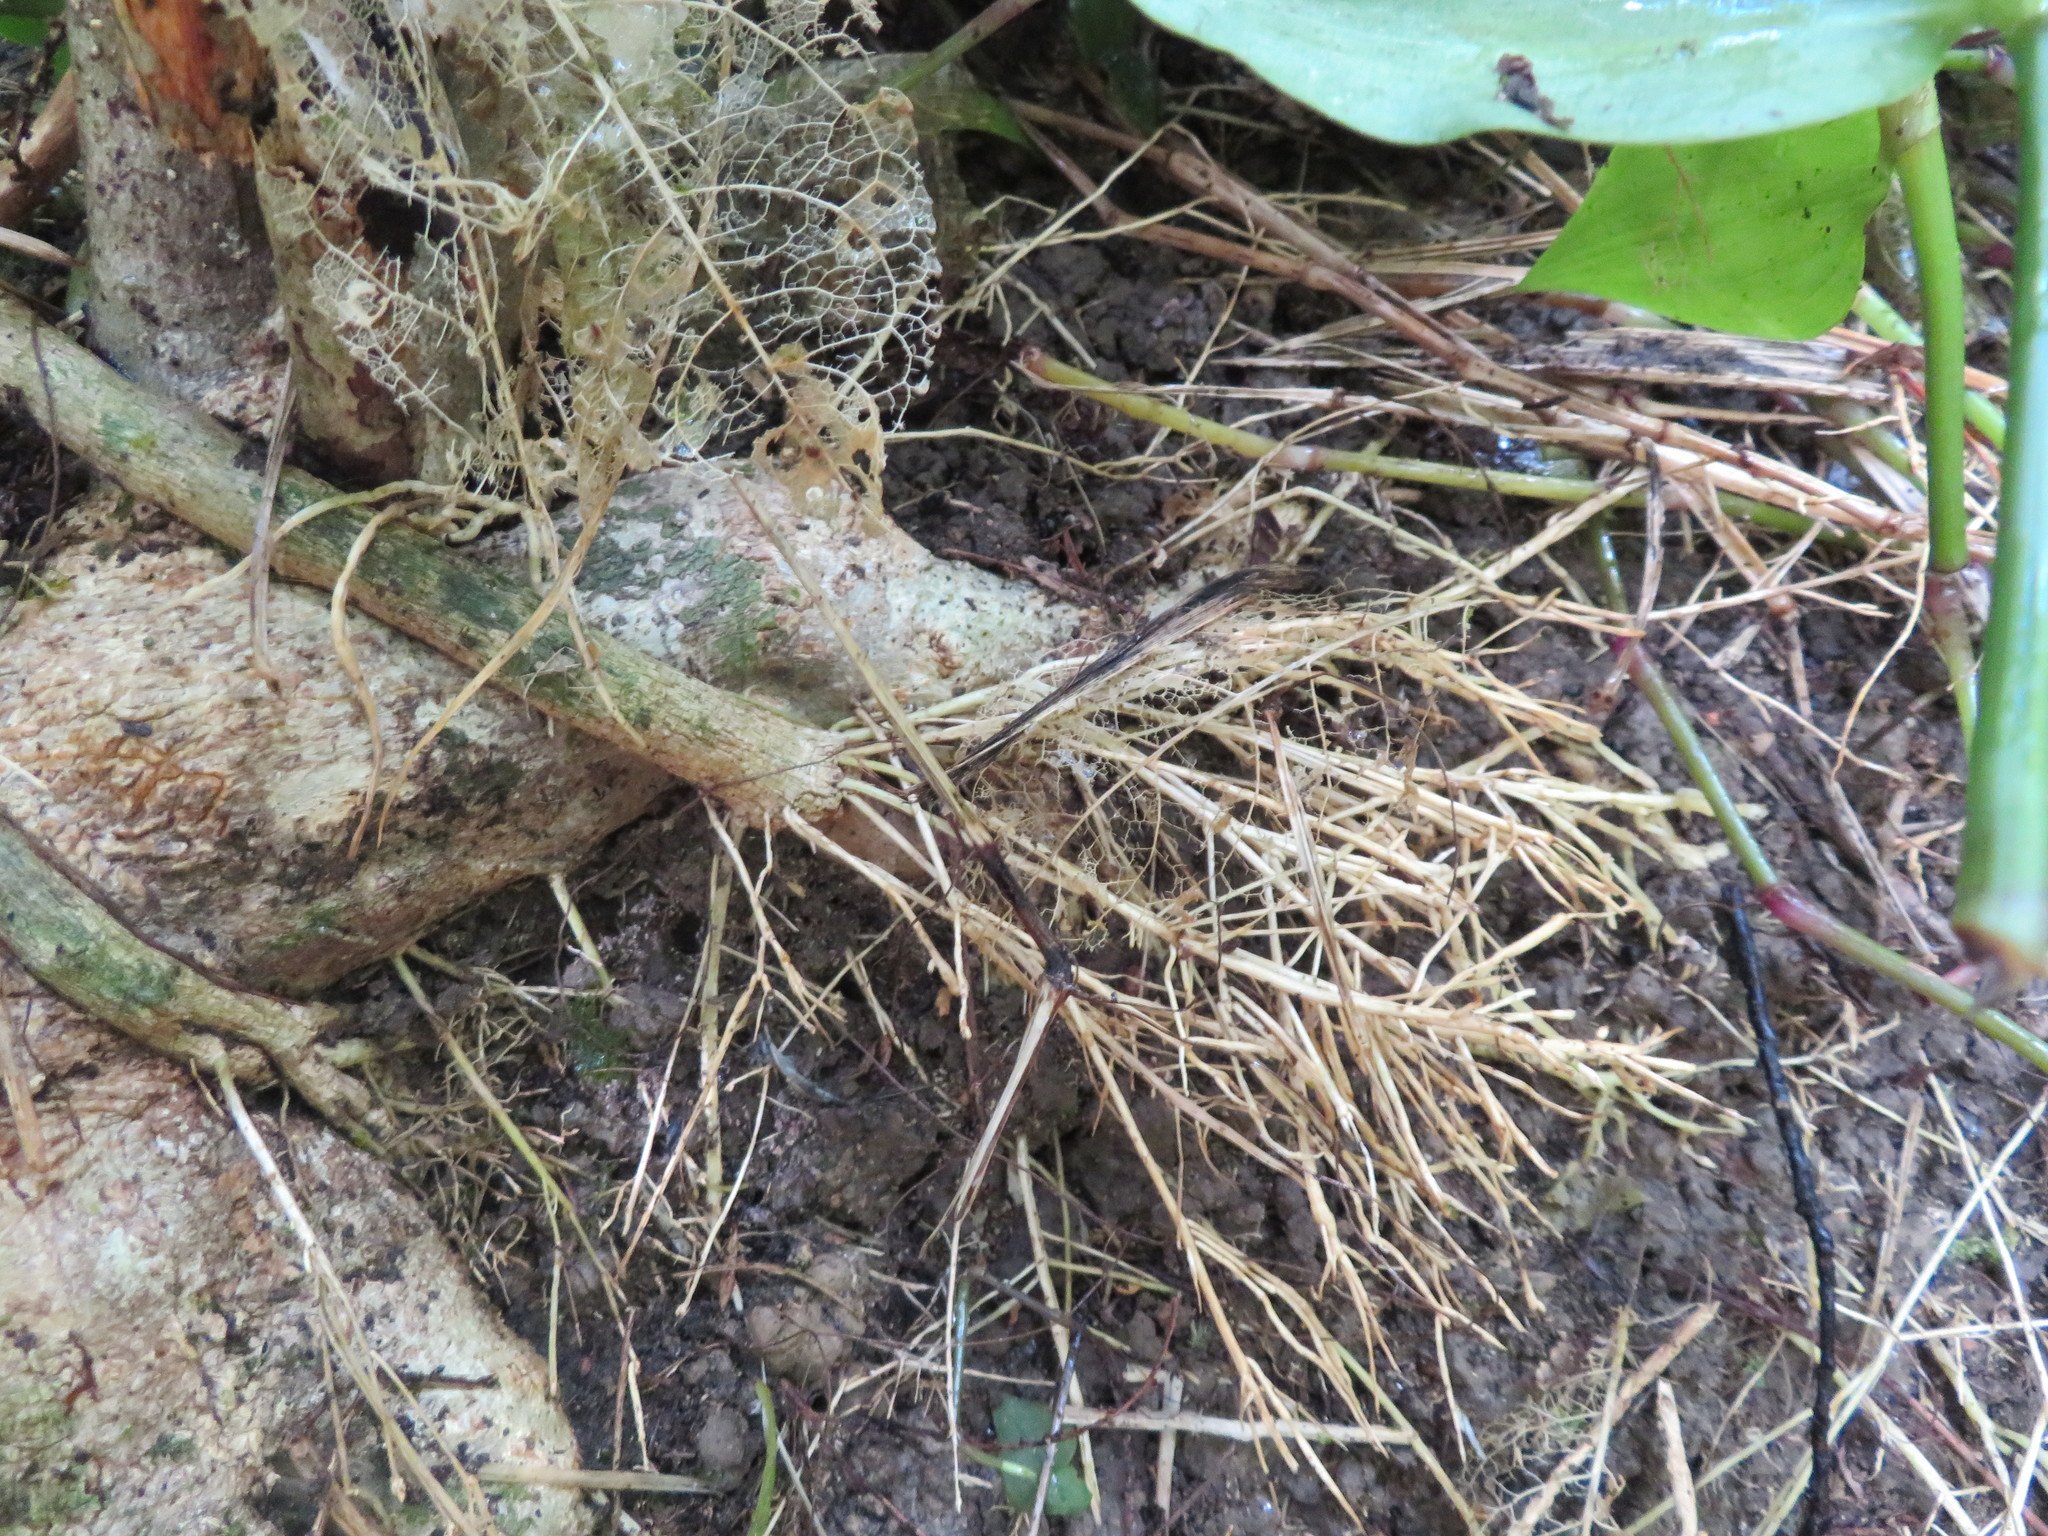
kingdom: Plantae
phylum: Tracheophyta
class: Magnoliopsida
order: Malpighiales
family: Violaceae
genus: Melicytus
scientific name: Melicytus ramiflorus
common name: Mahoe
